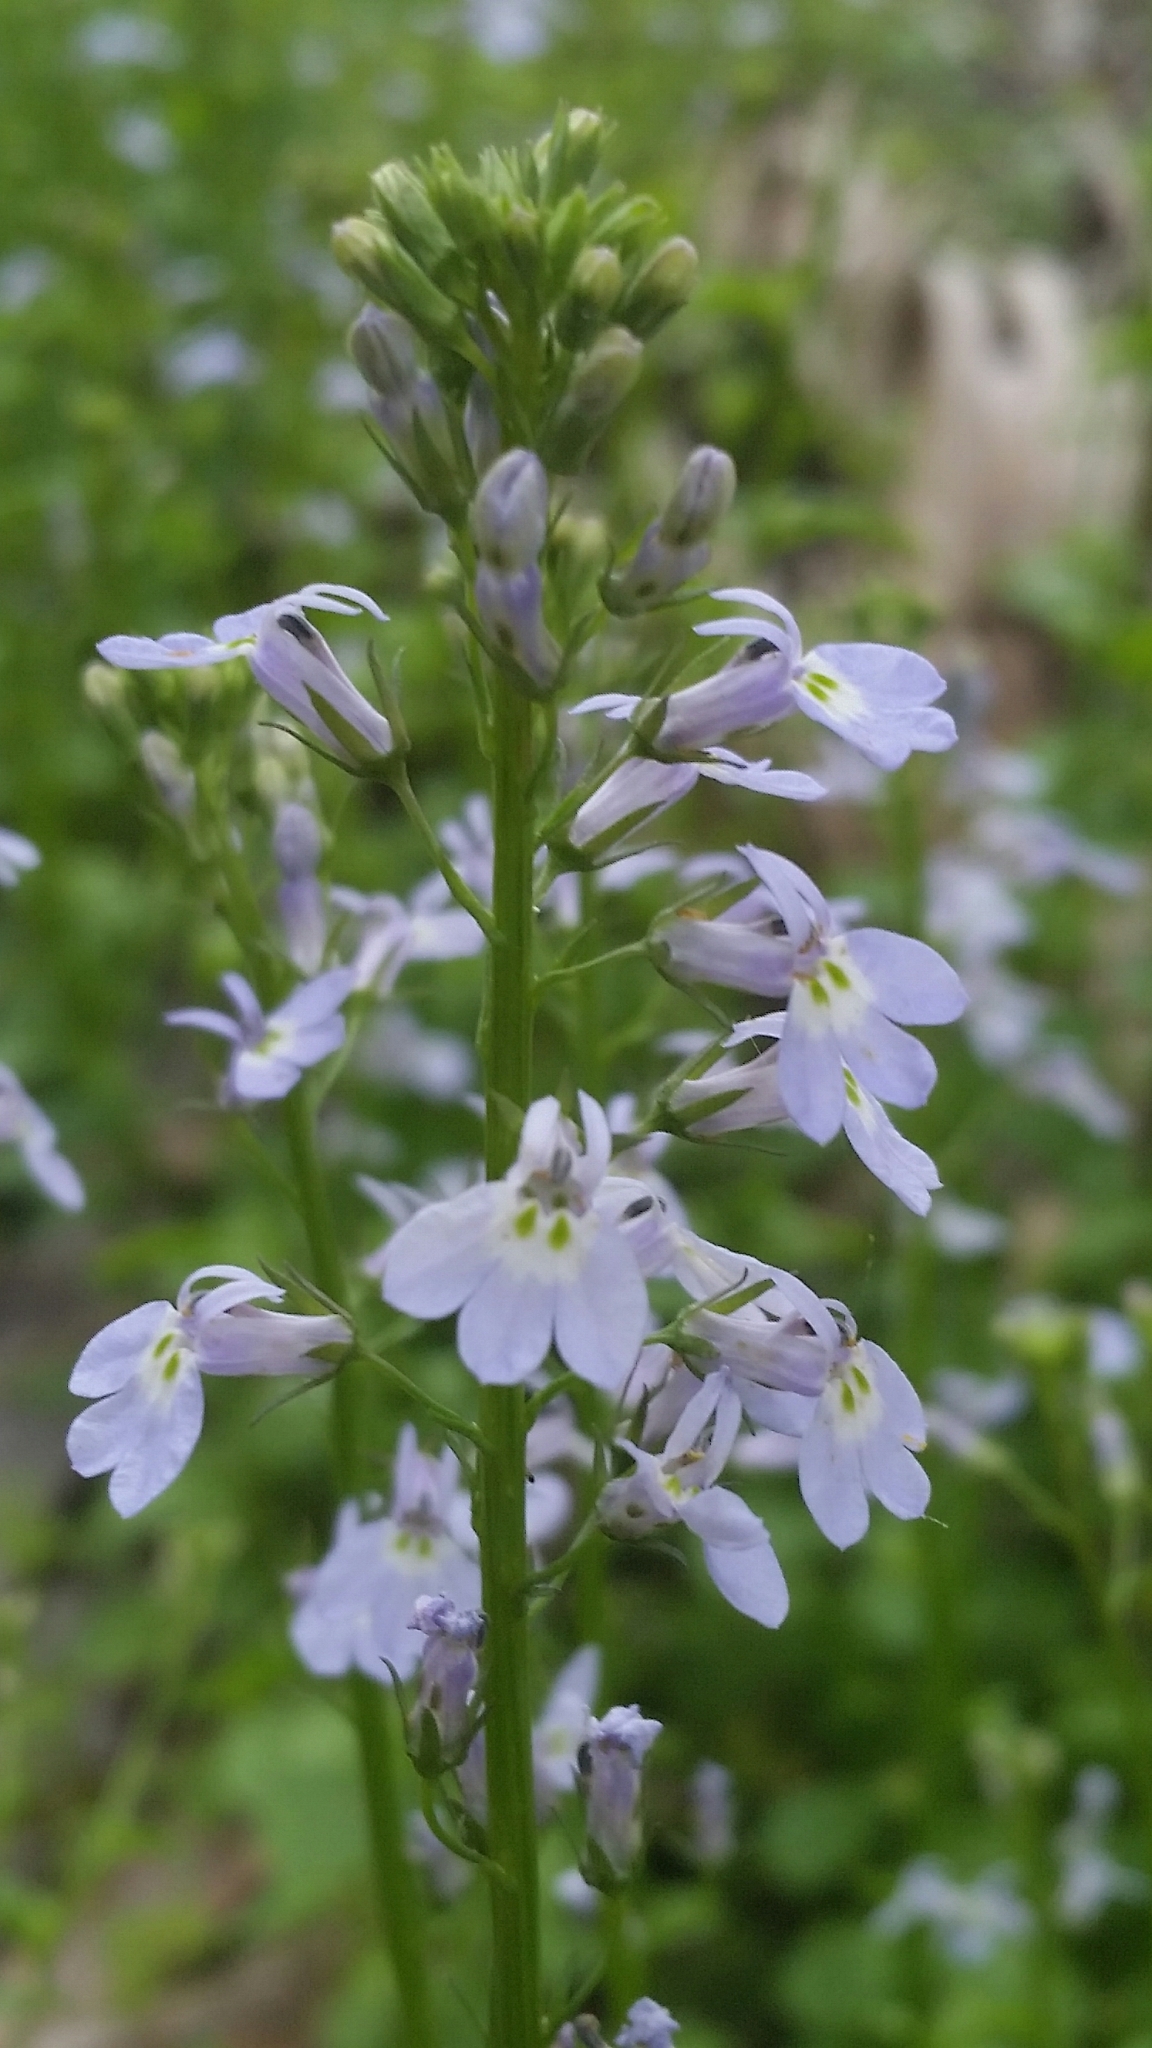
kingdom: Plantae
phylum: Tracheophyta
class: Magnoliopsida
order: Asterales
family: Campanulaceae
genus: Lobelia
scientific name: Lobelia homophylla
